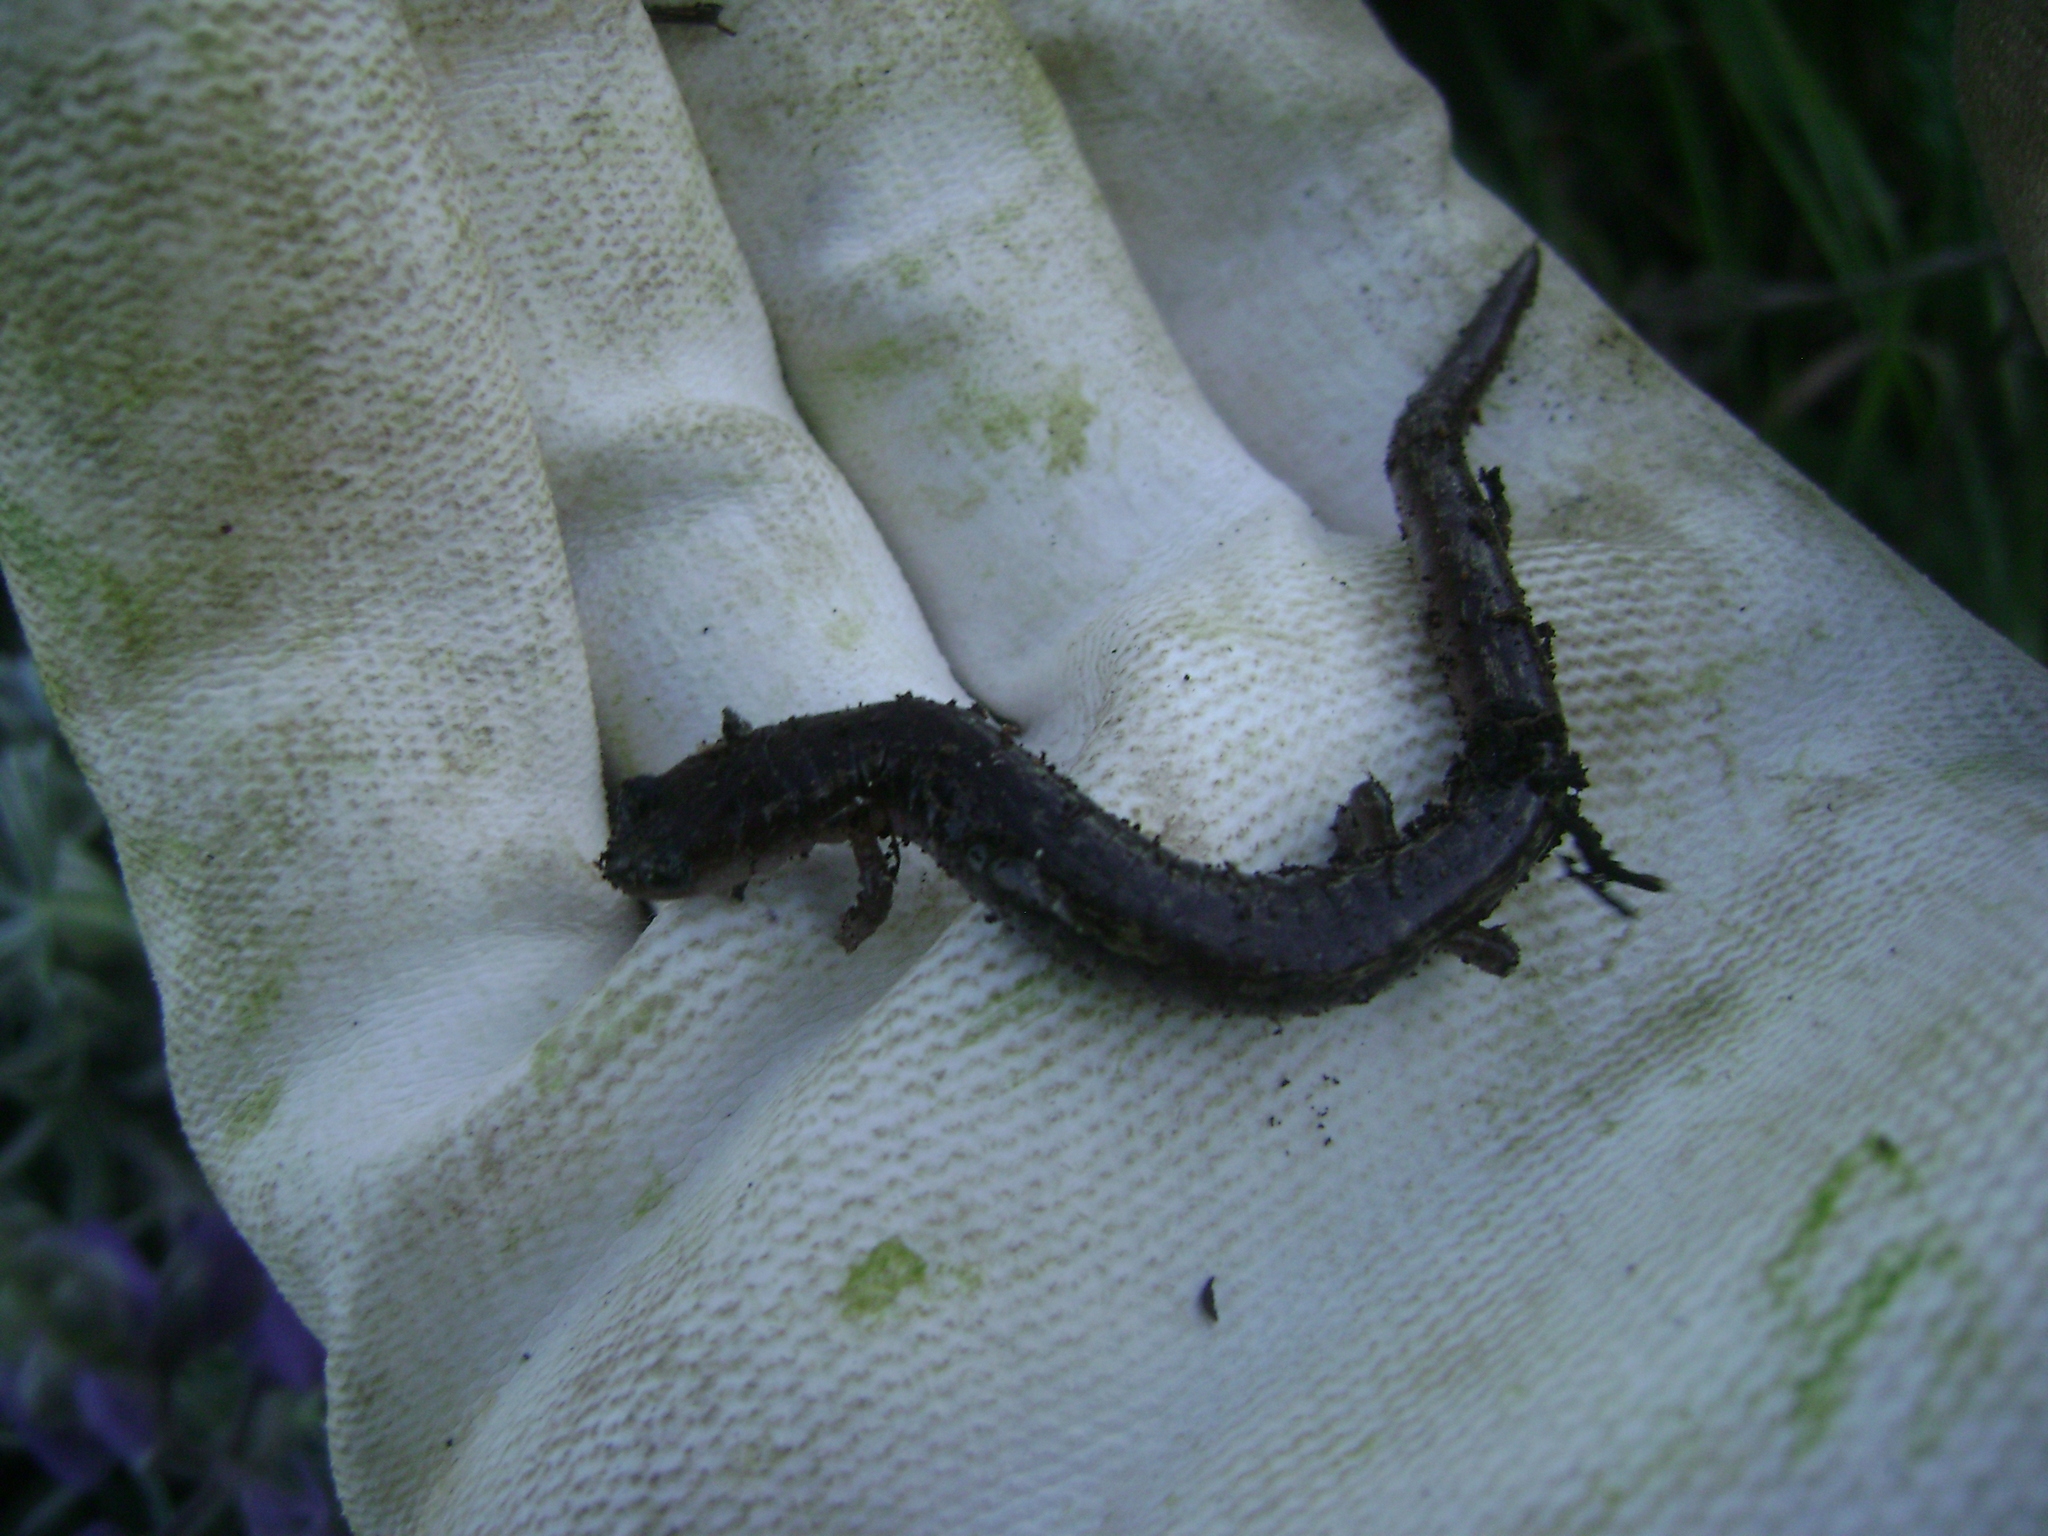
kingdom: Animalia
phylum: Chordata
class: Amphibia
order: Caudata
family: Plethodontidae
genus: Batrachoseps
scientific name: Batrachoseps pacificus
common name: Channel islands slender salamander
